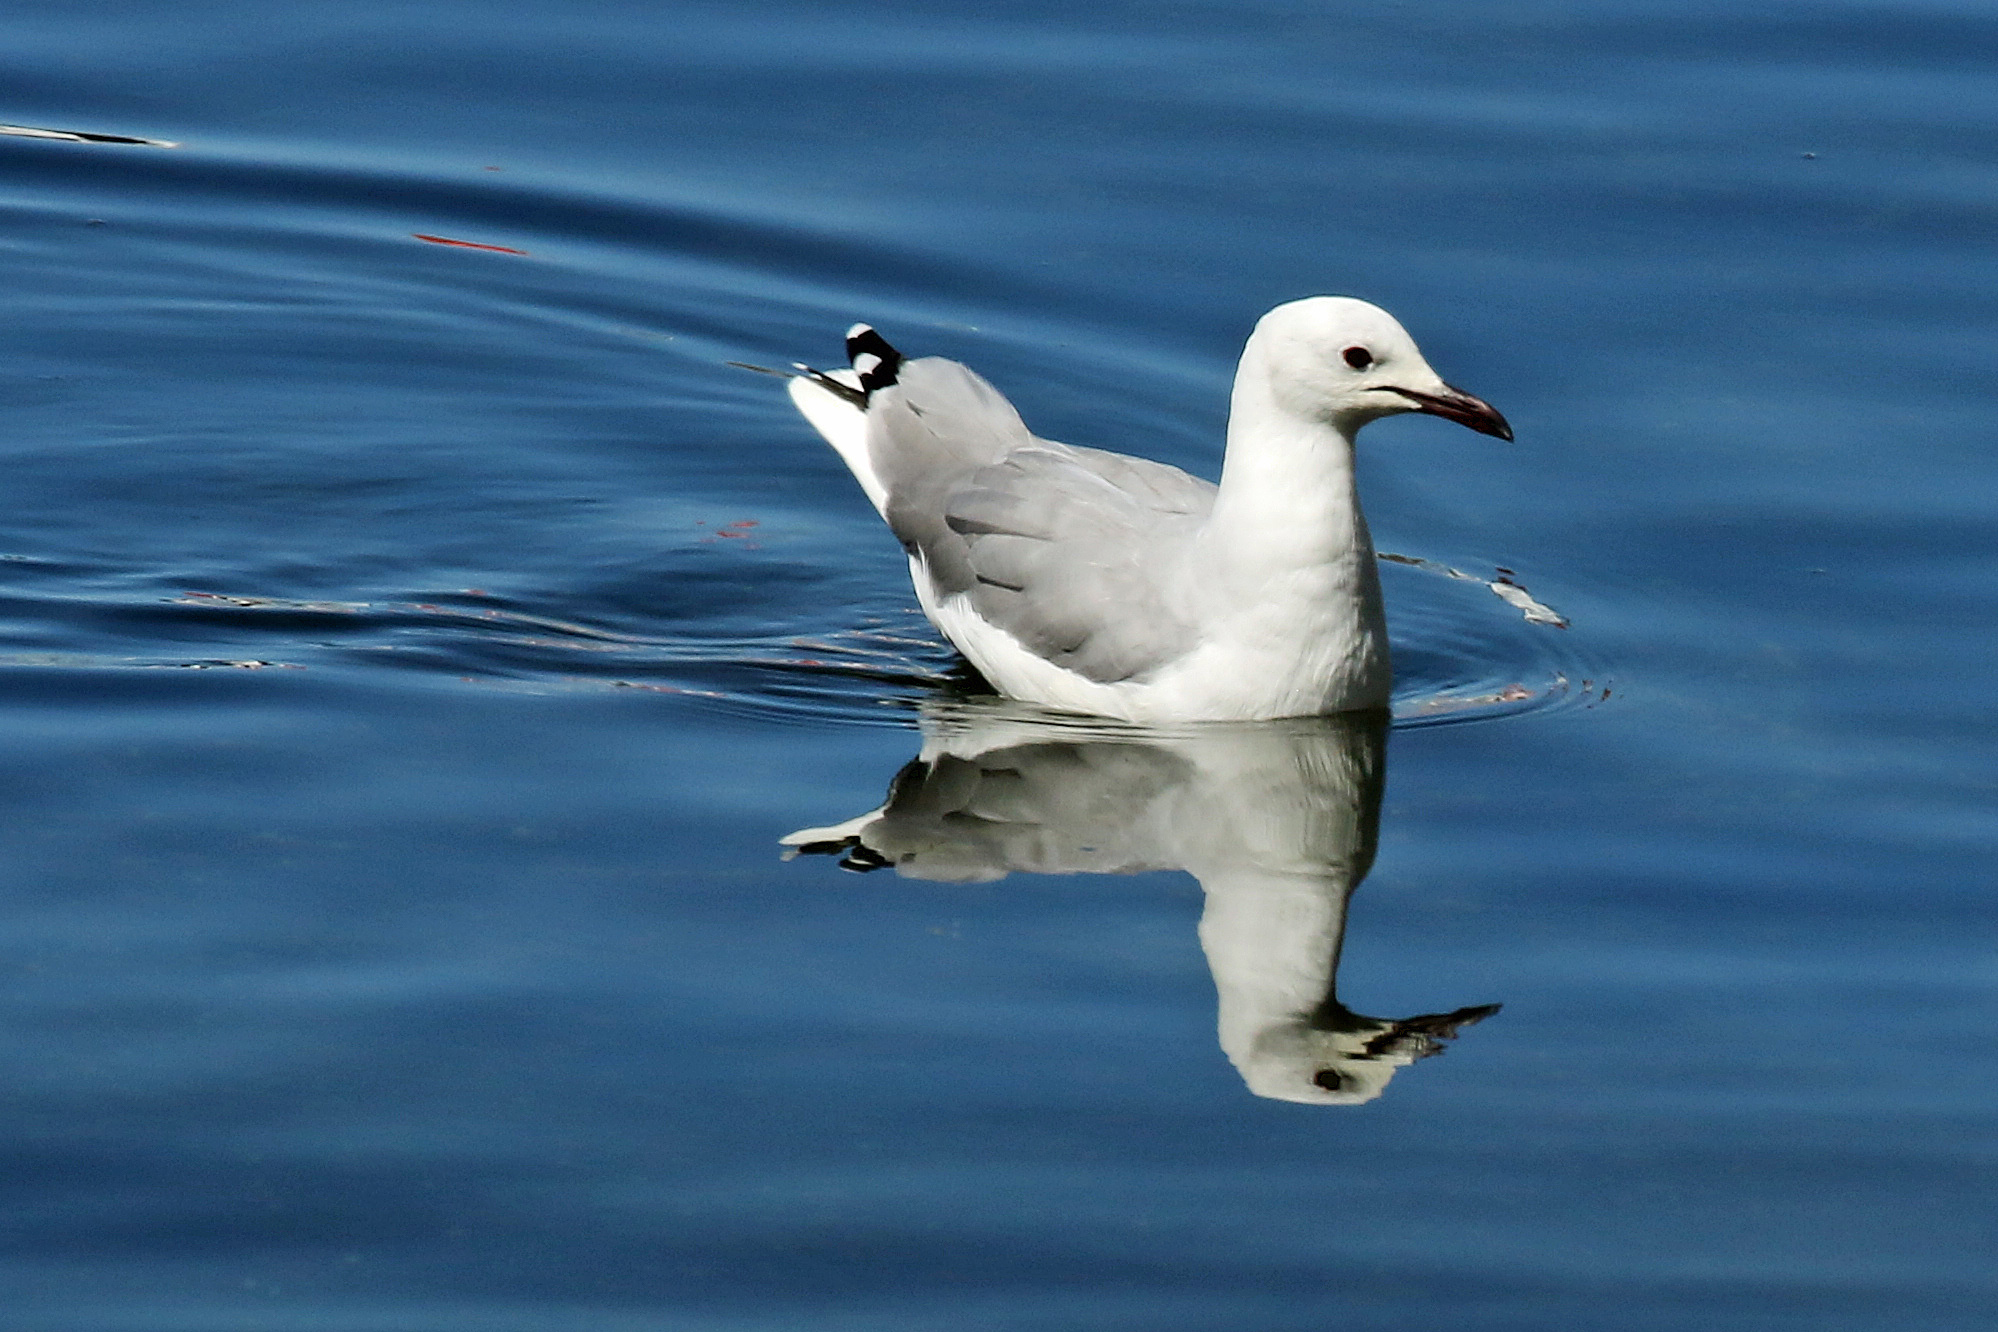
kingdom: Animalia
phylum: Chordata
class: Aves
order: Charadriiformes
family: Laridae
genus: Chroicocephalus
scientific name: Chroicocephalus hartlaubii
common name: Hartlaub's gull
